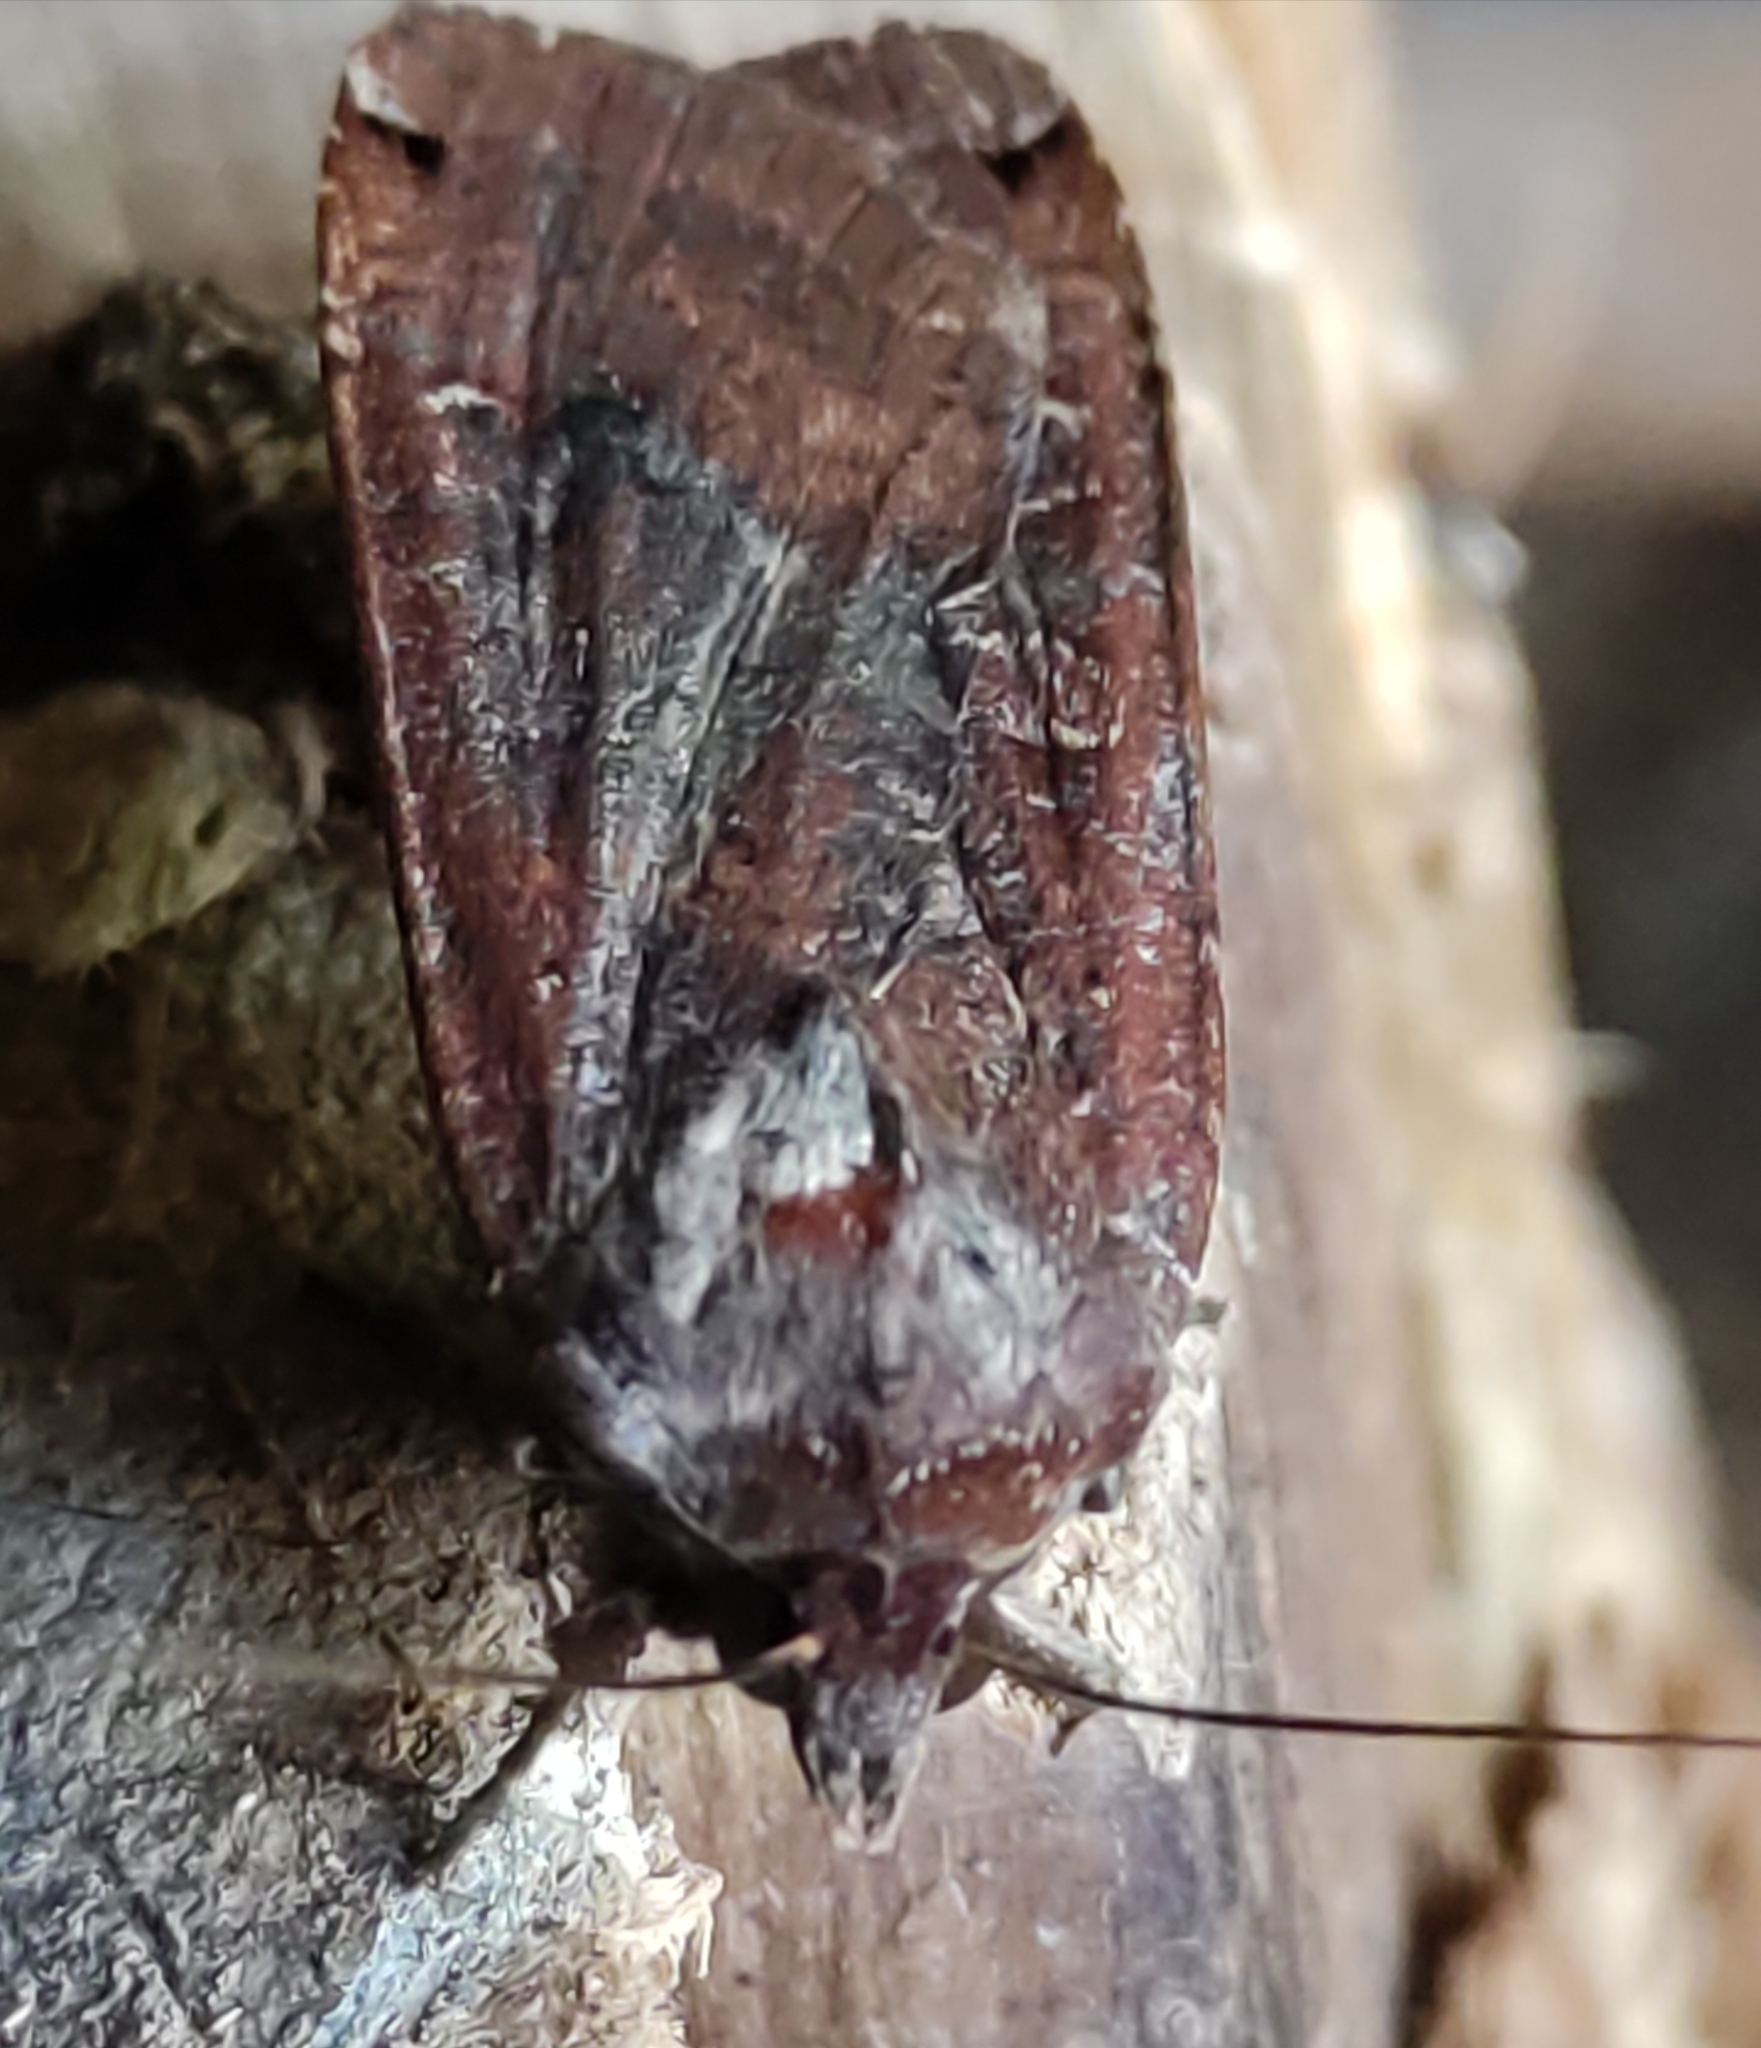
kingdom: Animalia
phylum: Arthropoda
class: Insecta
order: Lepidoptera
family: Noctuidae
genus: Noctua
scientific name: Noctua pronuba
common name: Large yellow underwing
